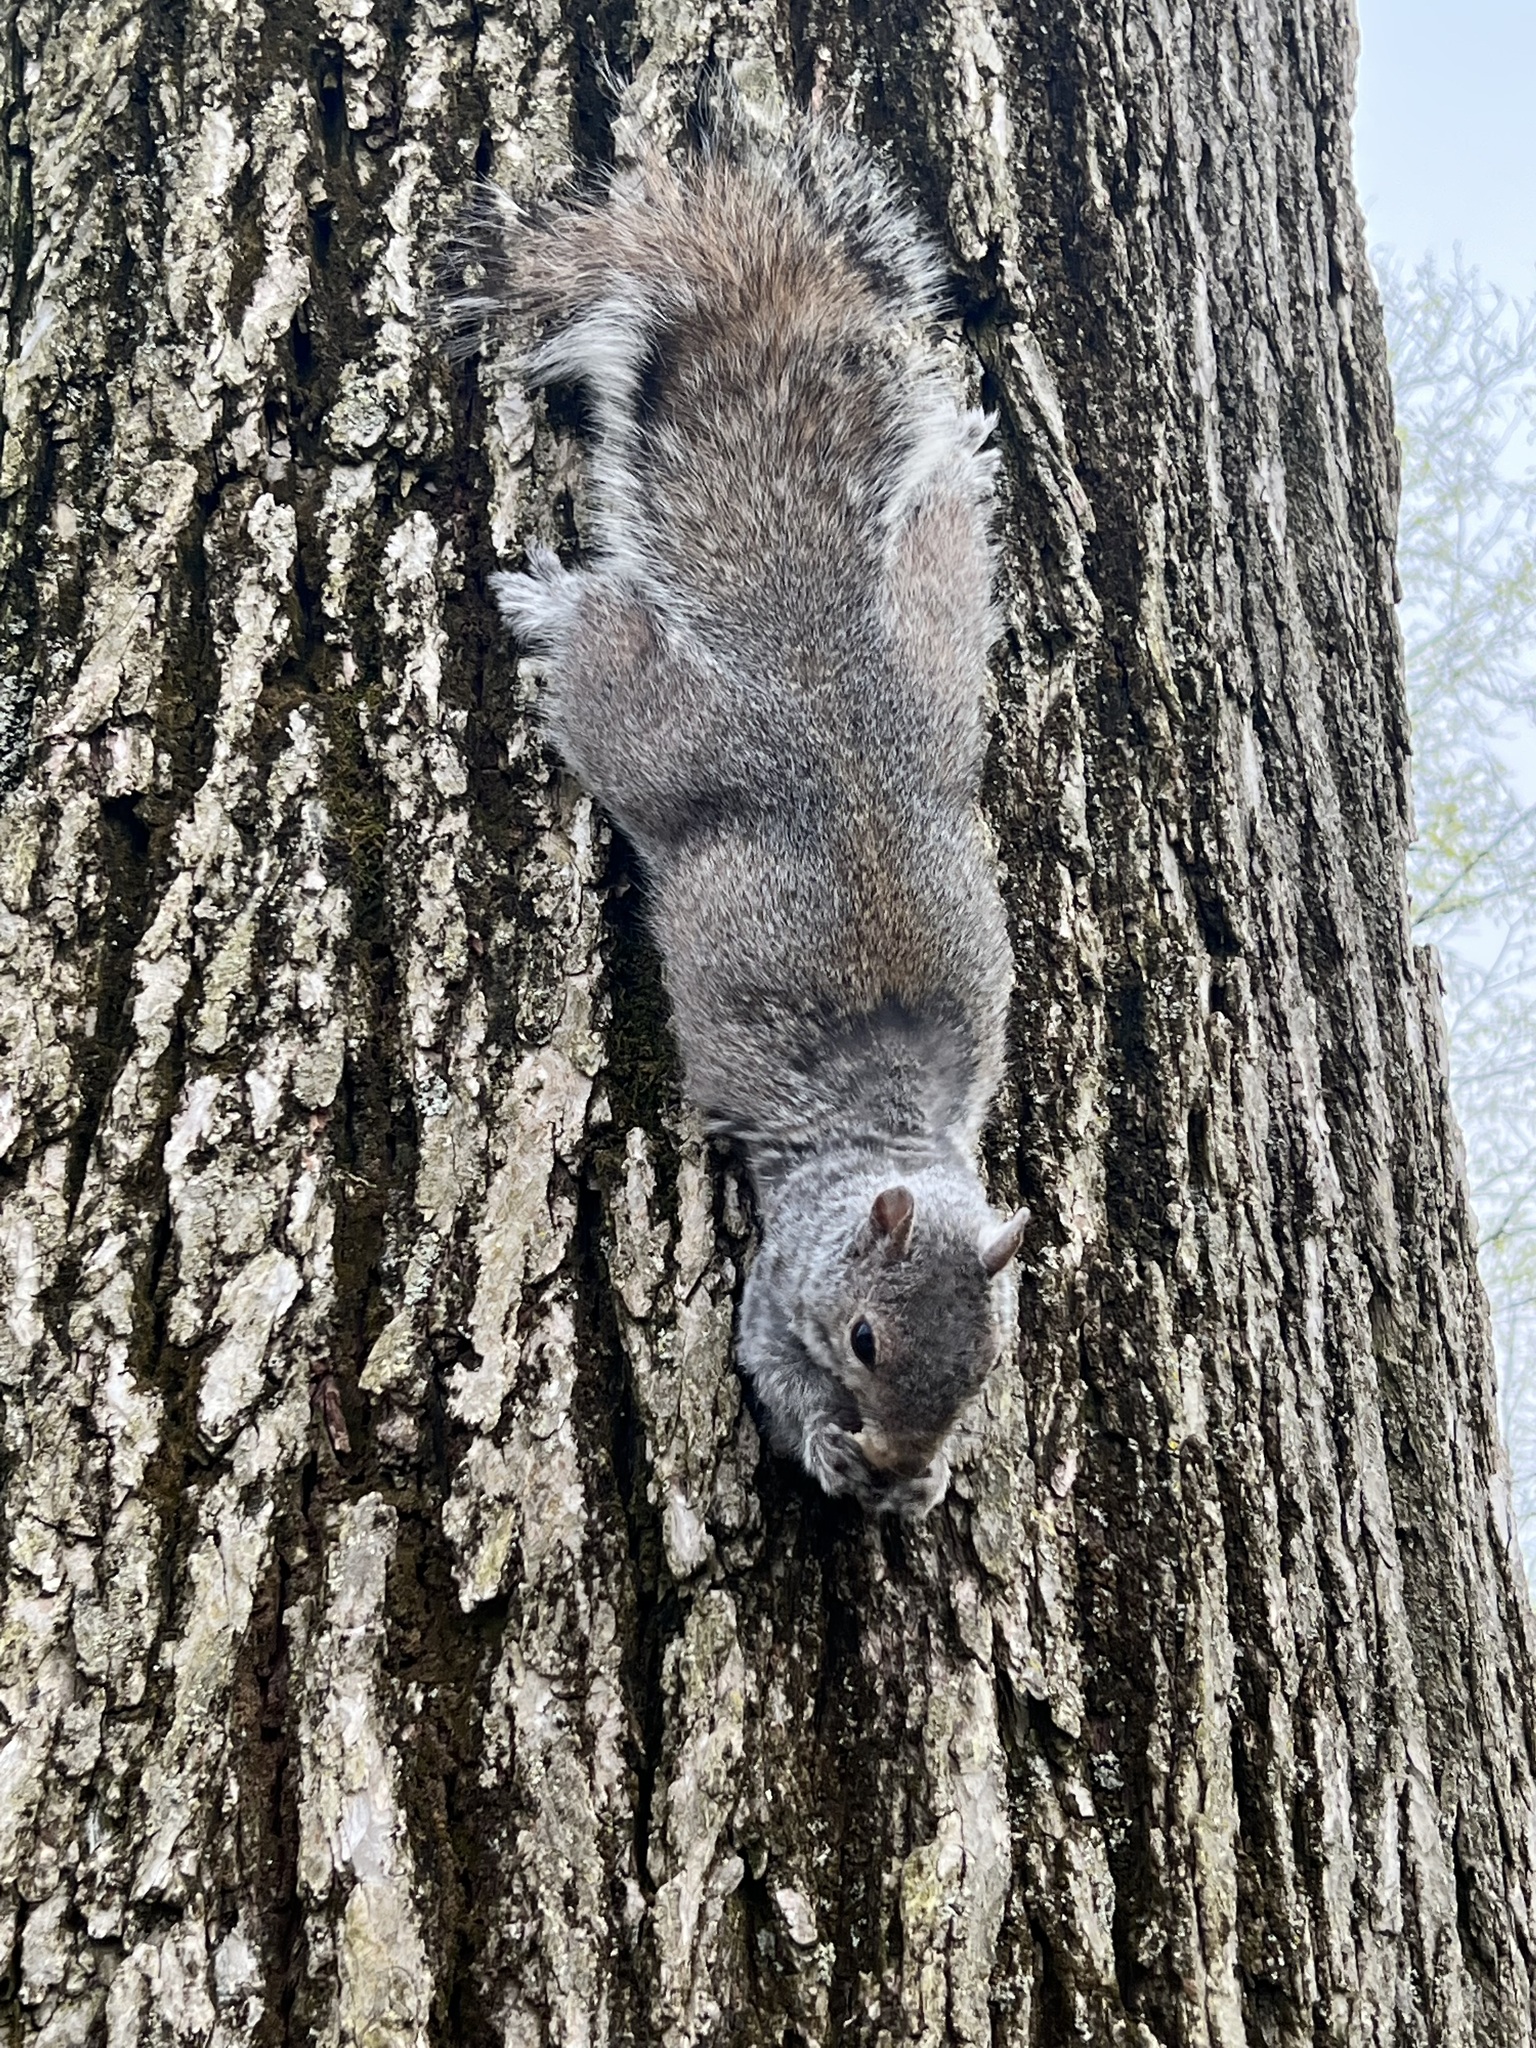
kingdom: Animalia
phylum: Chordata
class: Mammalia
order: Rodentia
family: Sciuridae
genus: Sciurus
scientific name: Sciurus carolinensis
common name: Eastern gray squirrel
